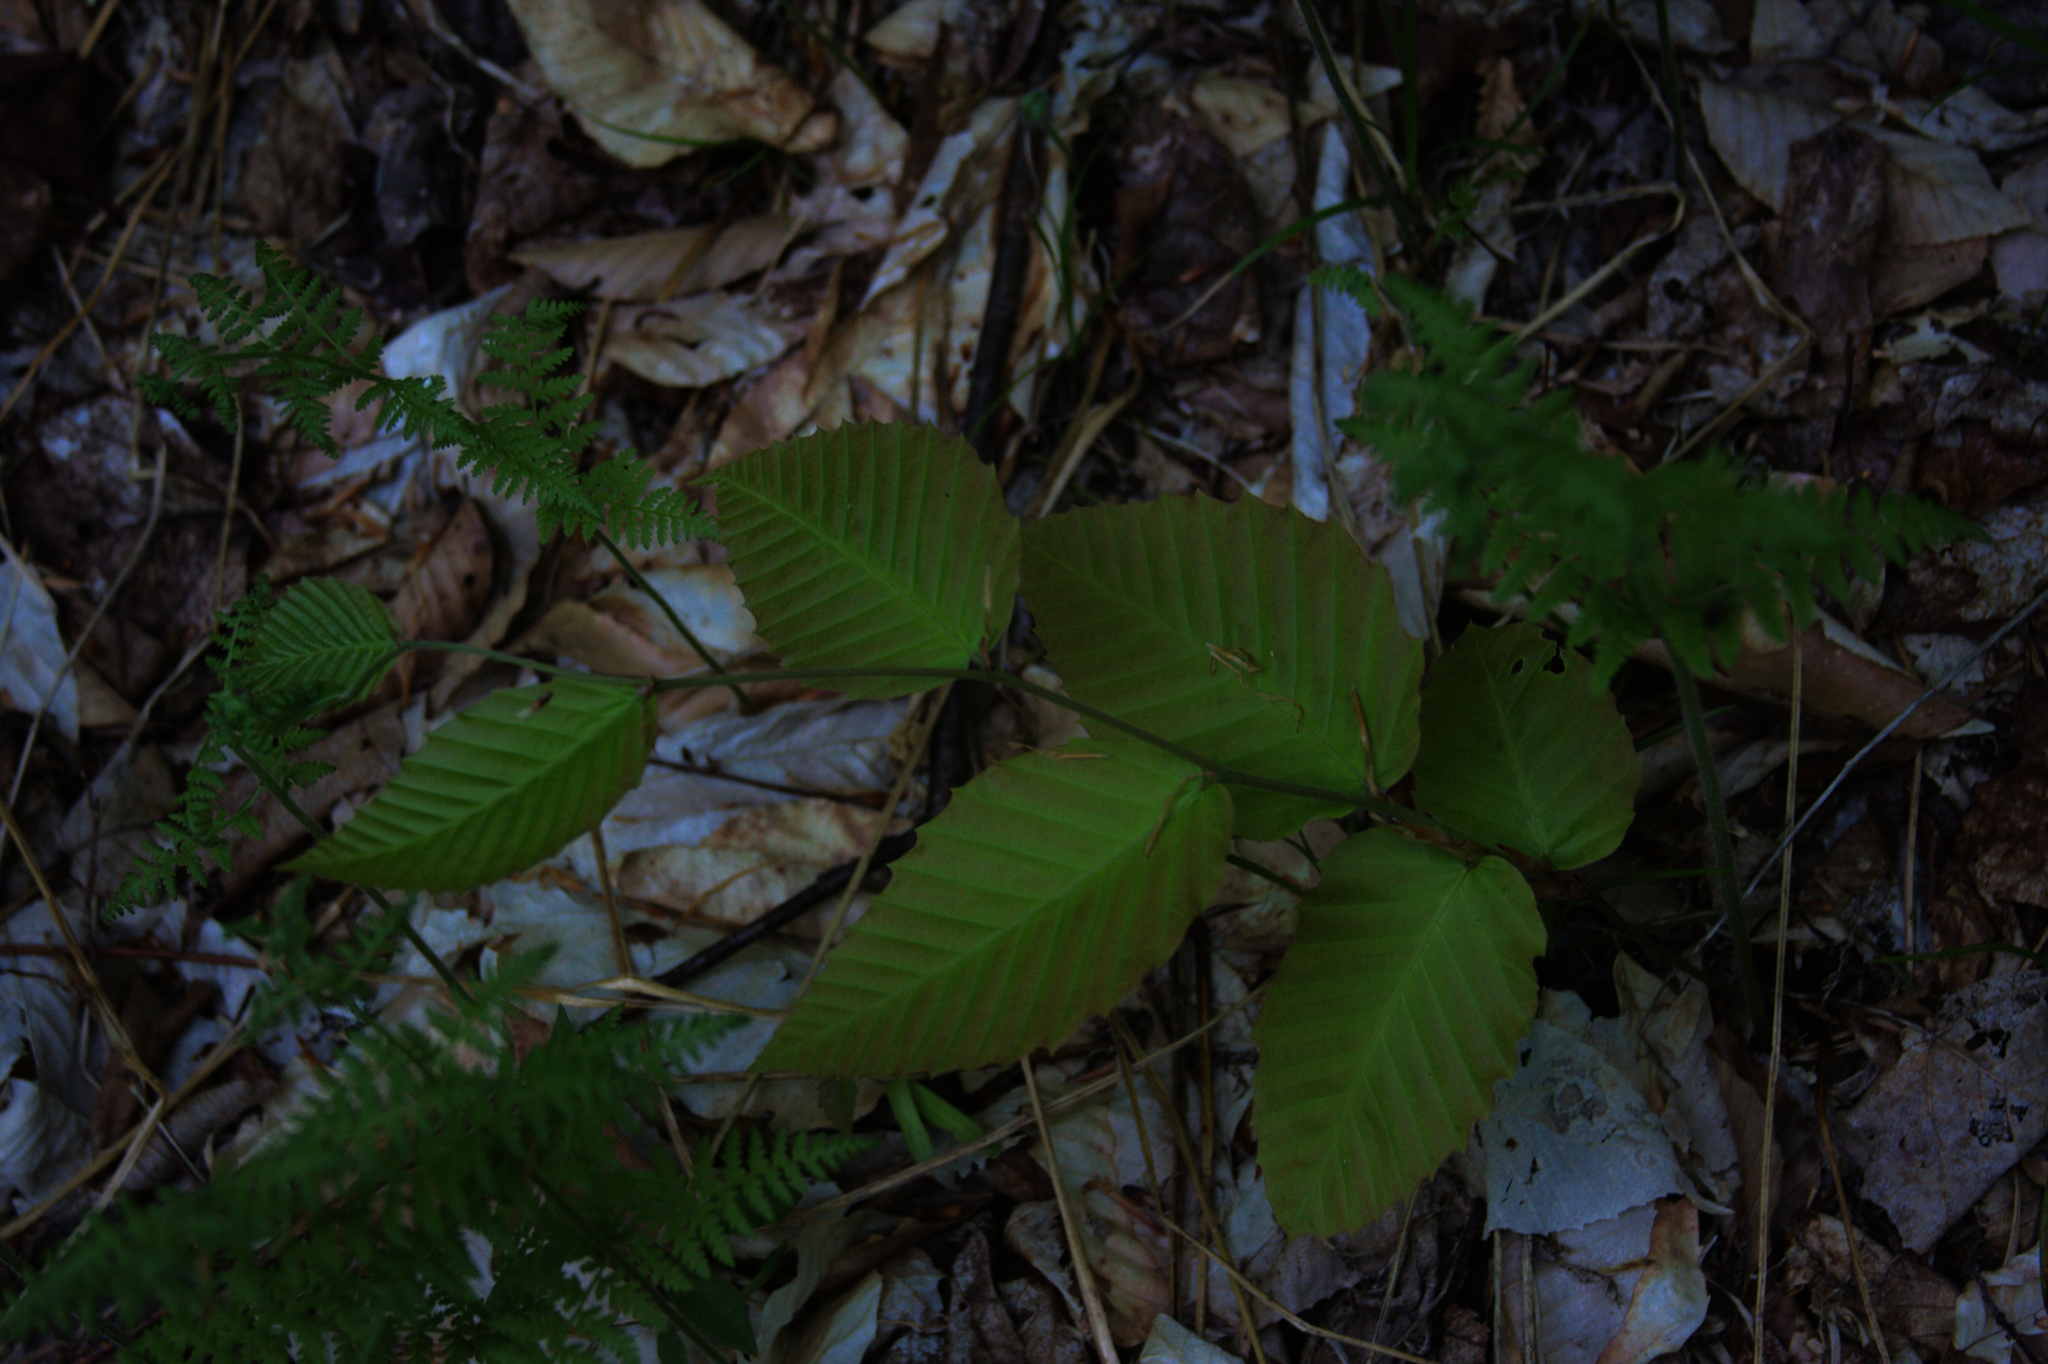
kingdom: Plantae
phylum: Tracheophyta
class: Magnoliopsida
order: Fagales
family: Fagaceae
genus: Fagus
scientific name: Fagus grandifolia
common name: American beech
